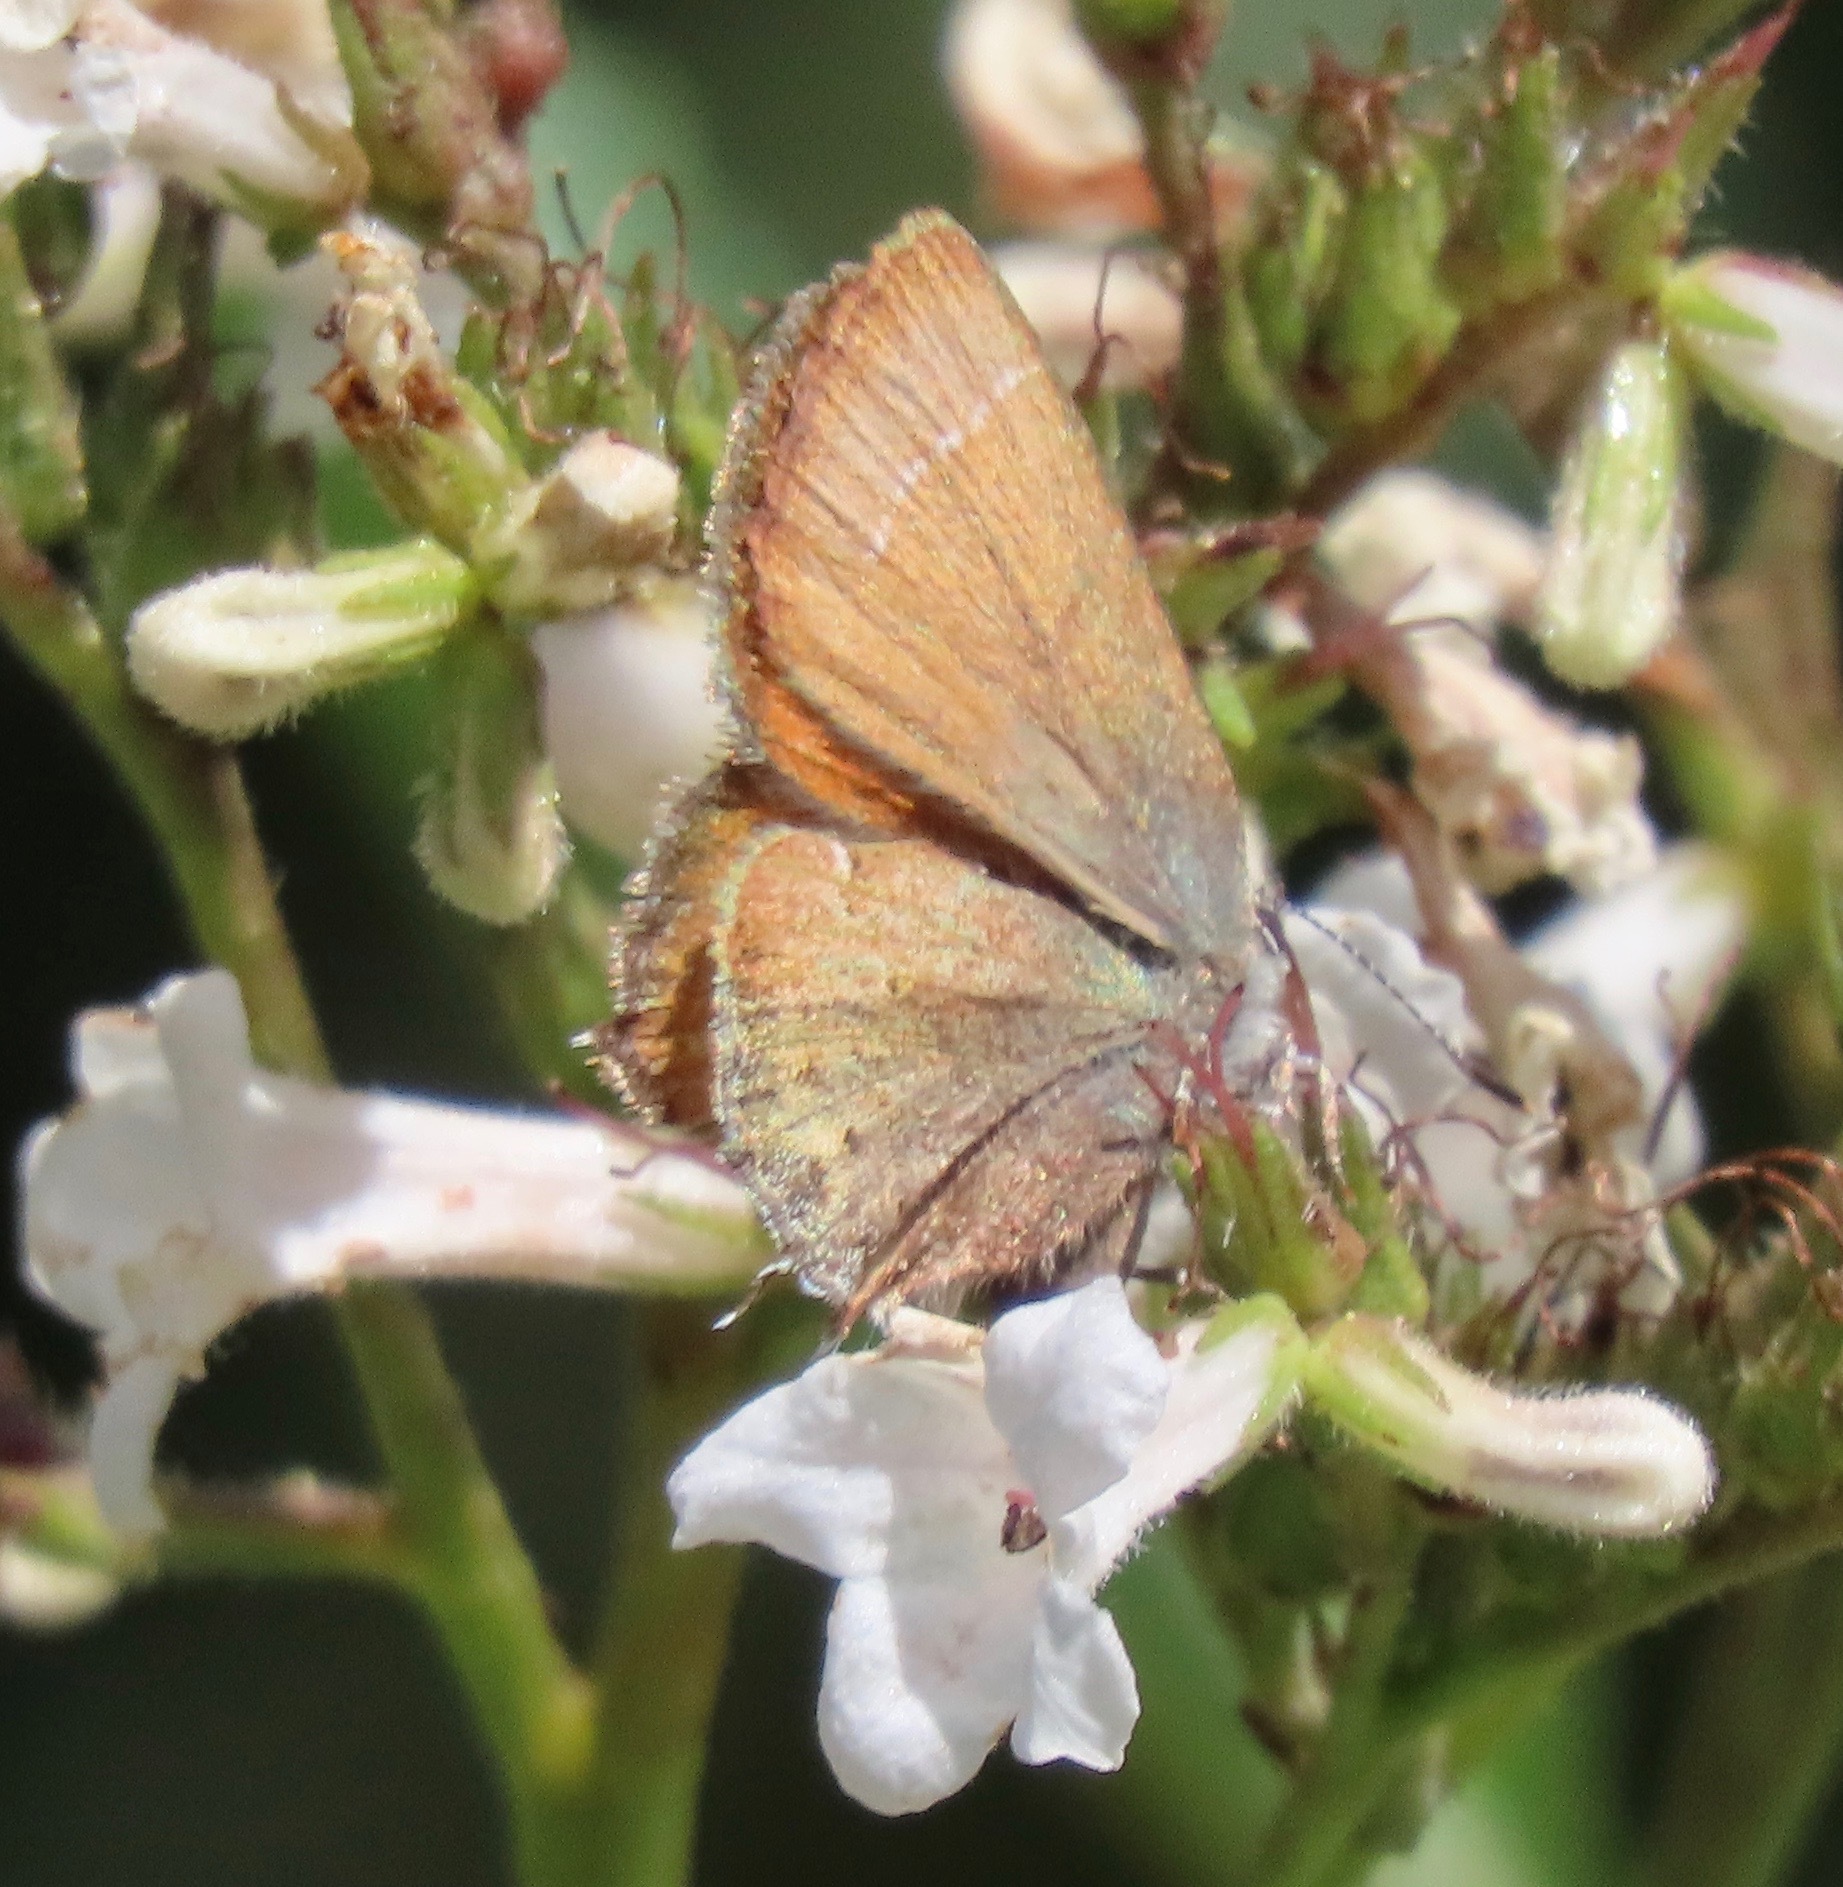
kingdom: Animalia
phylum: Arthropoda
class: Insecta
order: Lepidoptera
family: Lycaenidae
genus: Callophrys
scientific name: Callophrys muiri
